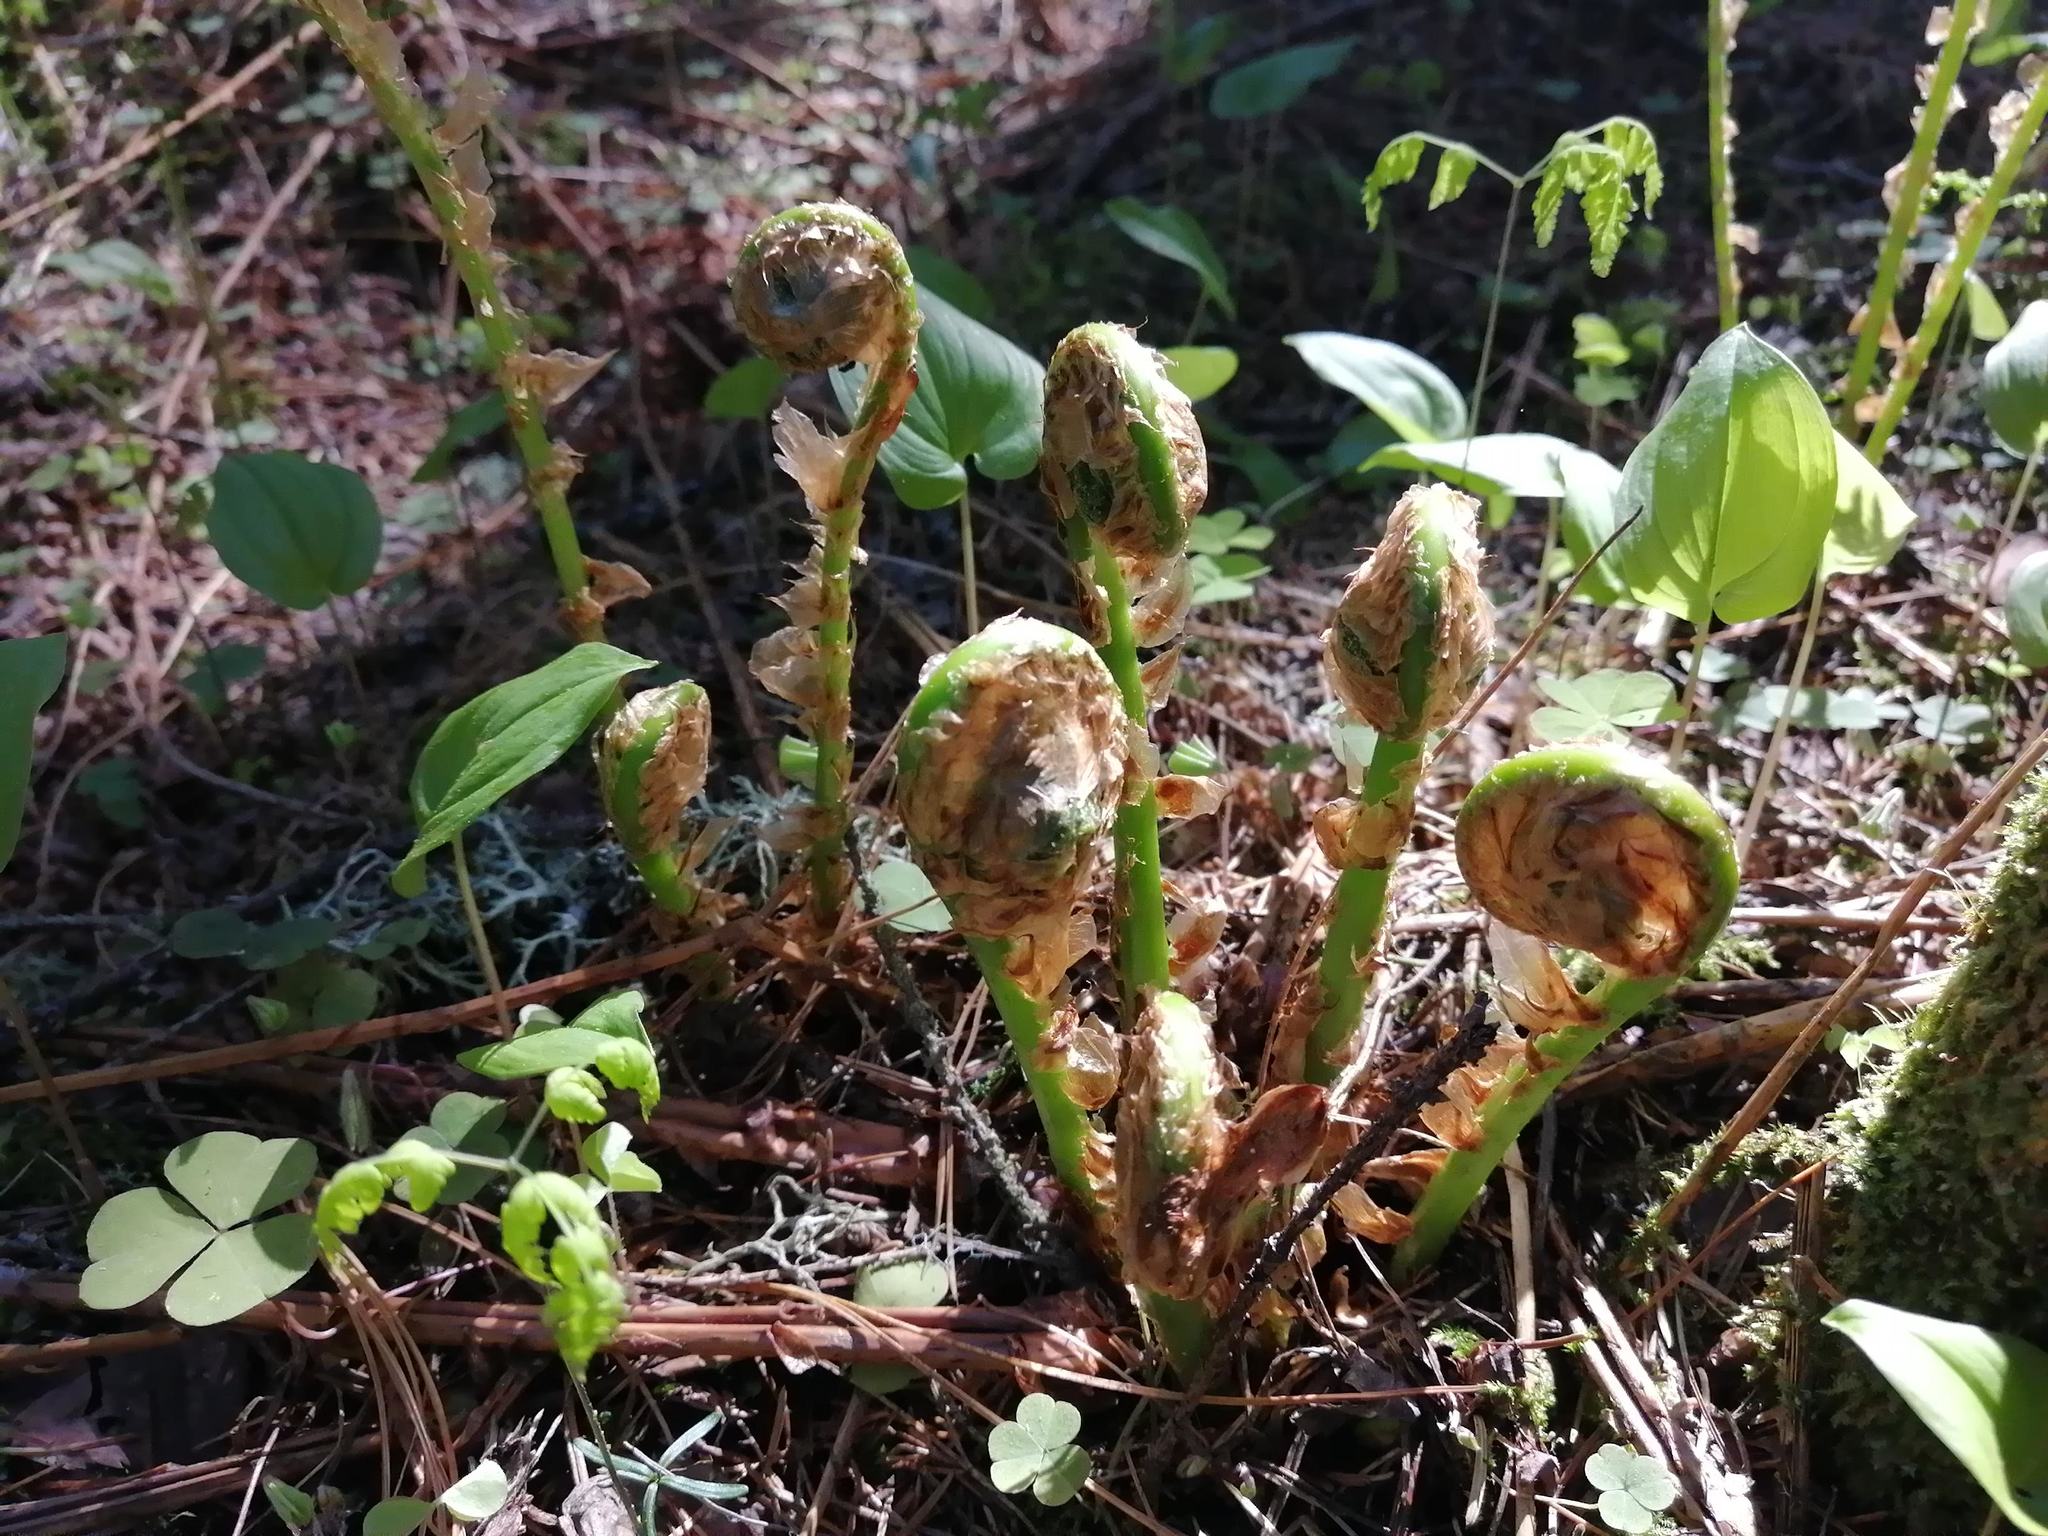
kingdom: Plantae
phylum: Tracheophyta
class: Polypodiopsida
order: Polypodiales
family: Dryopteridaceae
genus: Dryopteris
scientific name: Dryopteris expansa
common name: Northern buckler fern
